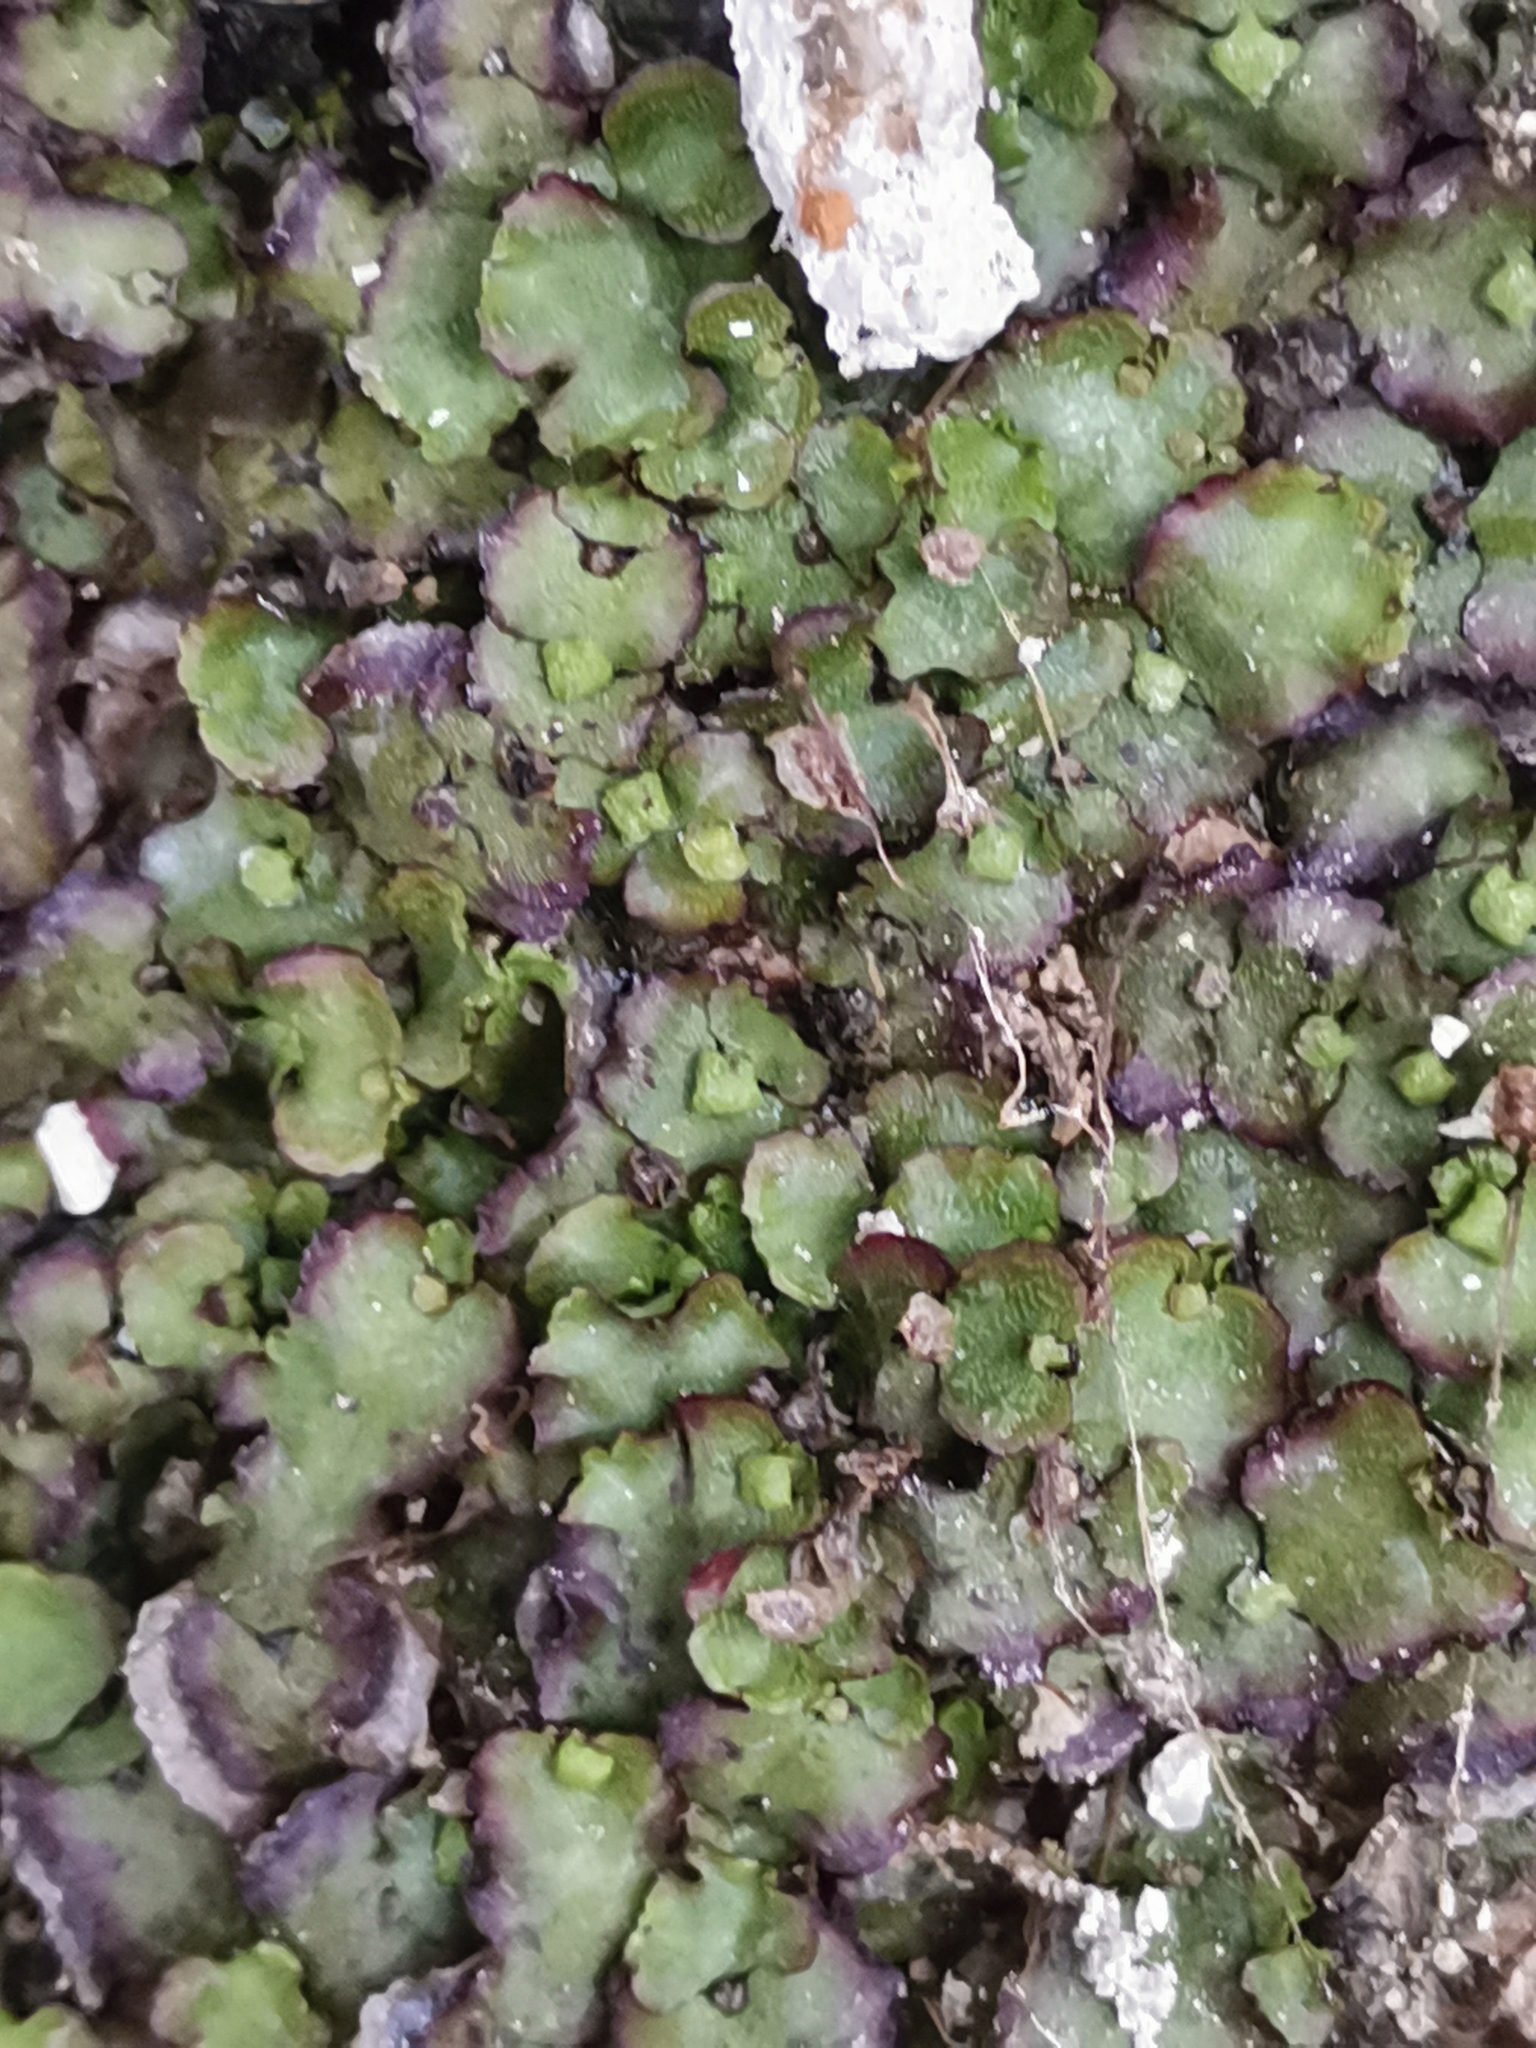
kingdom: Plantae
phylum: Marchantiophyta
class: Marchantiopsida
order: Marchantiales
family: Marchantiaceae
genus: Marchantia
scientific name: Marchantia quadrata
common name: Narrow mushroom-headed liverwort
